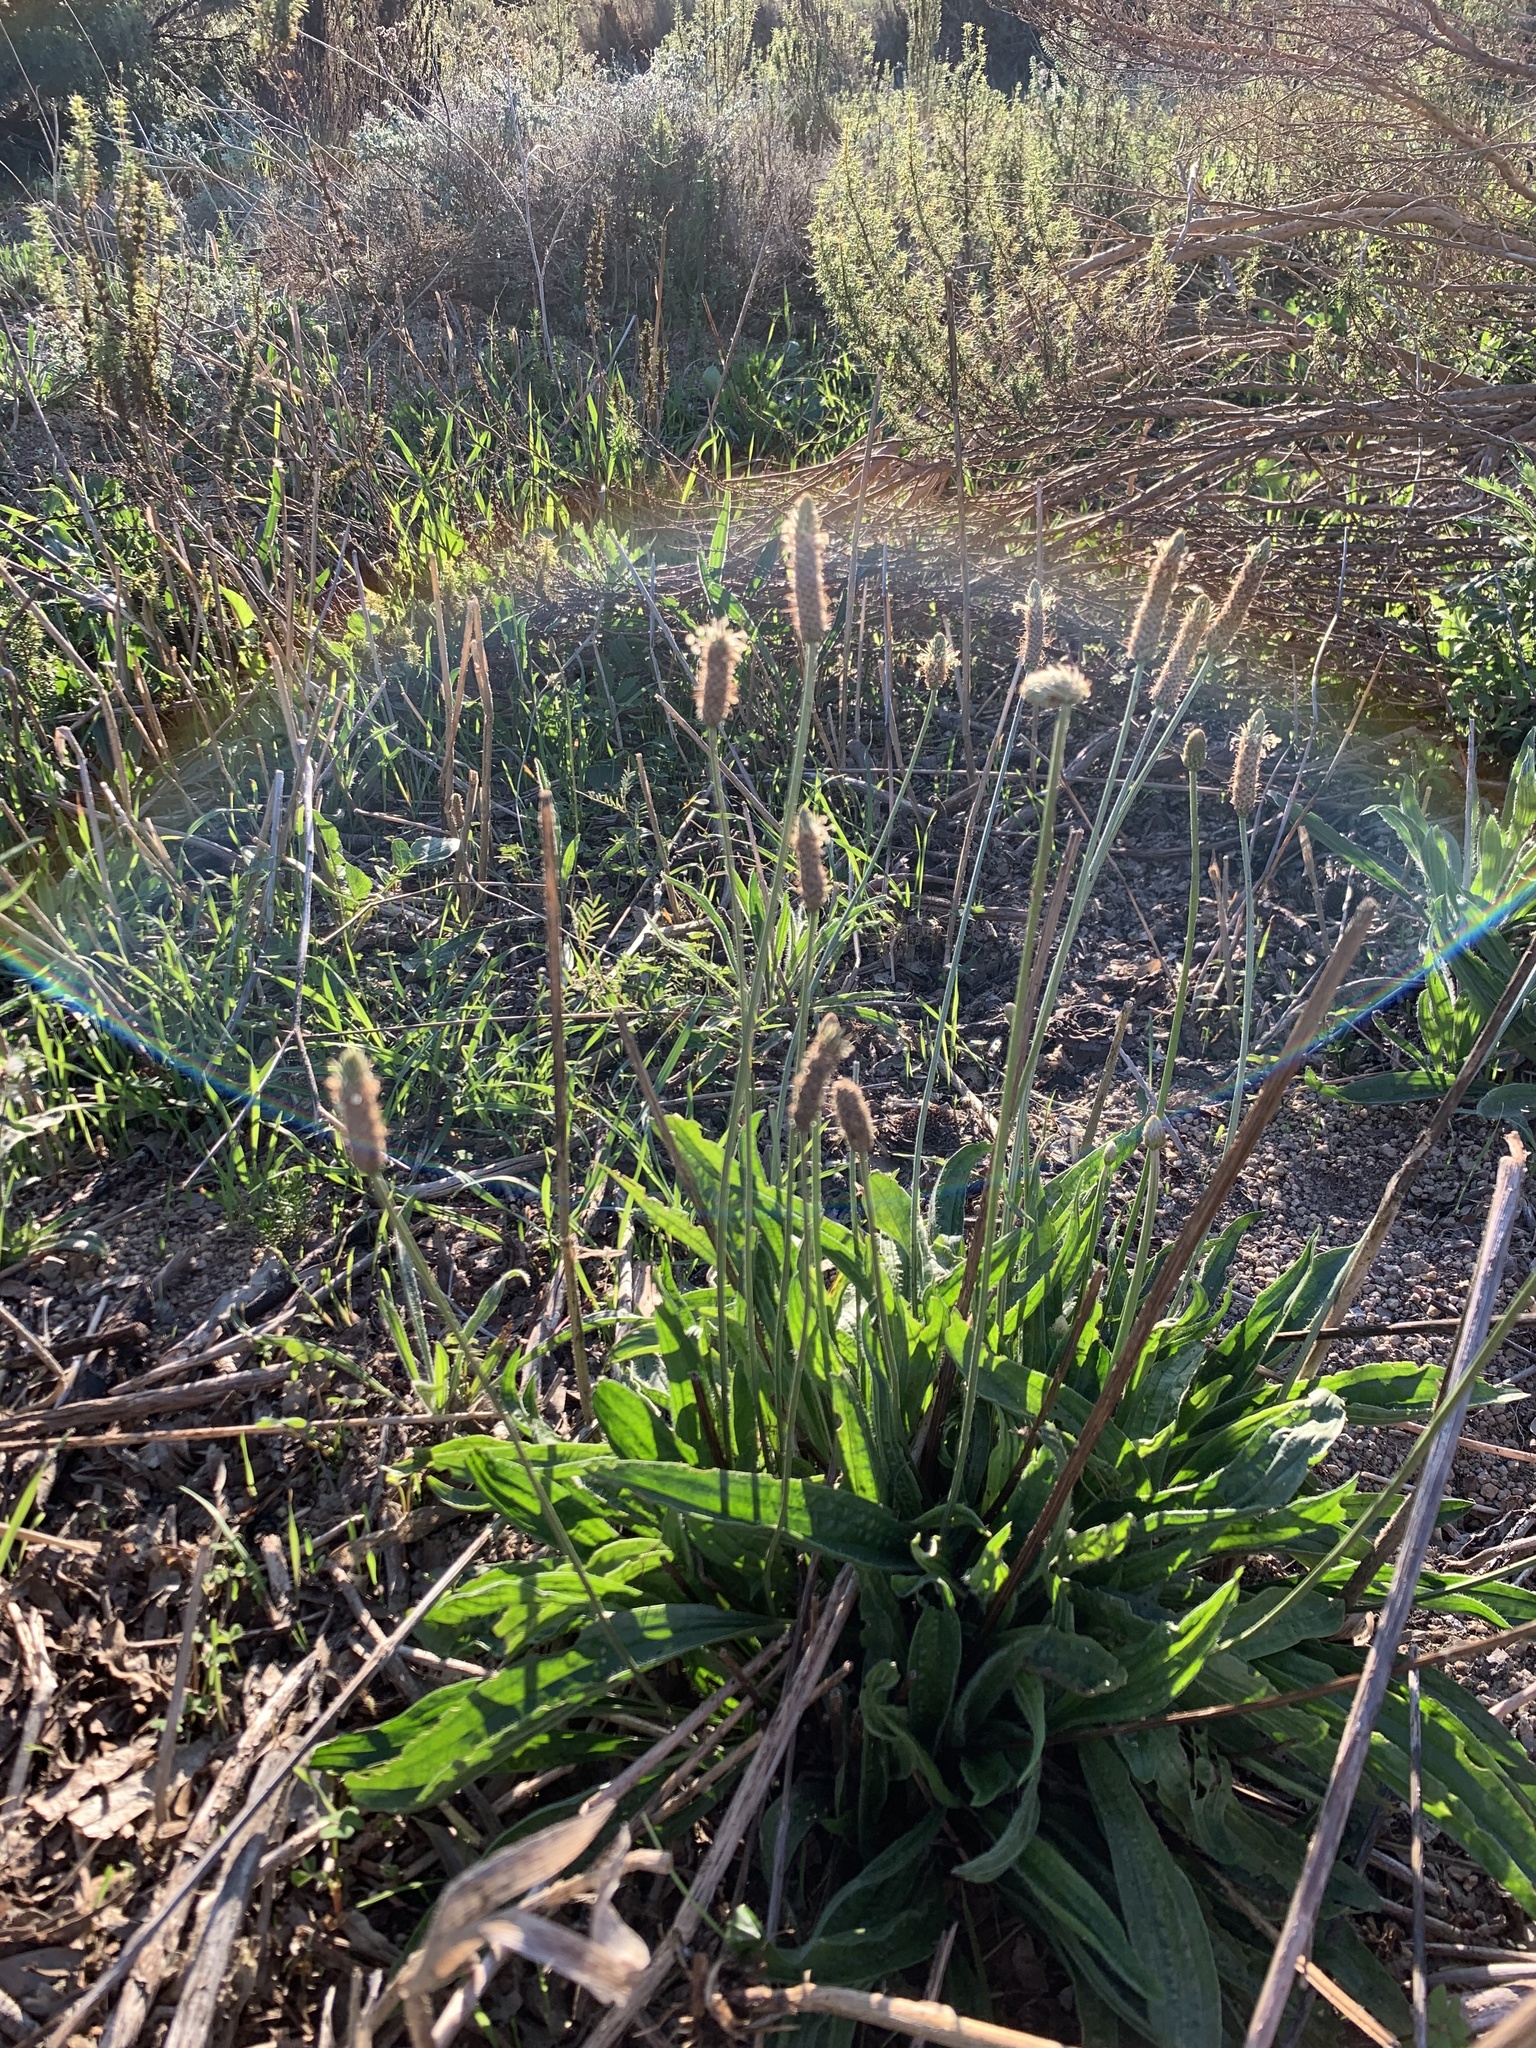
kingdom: Plantae
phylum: Tracheophyta
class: Magnoliopsida
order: Lamiales
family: Plantaginaceae
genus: Plantago
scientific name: Plantago lanceolata
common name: Ribwort plantain
